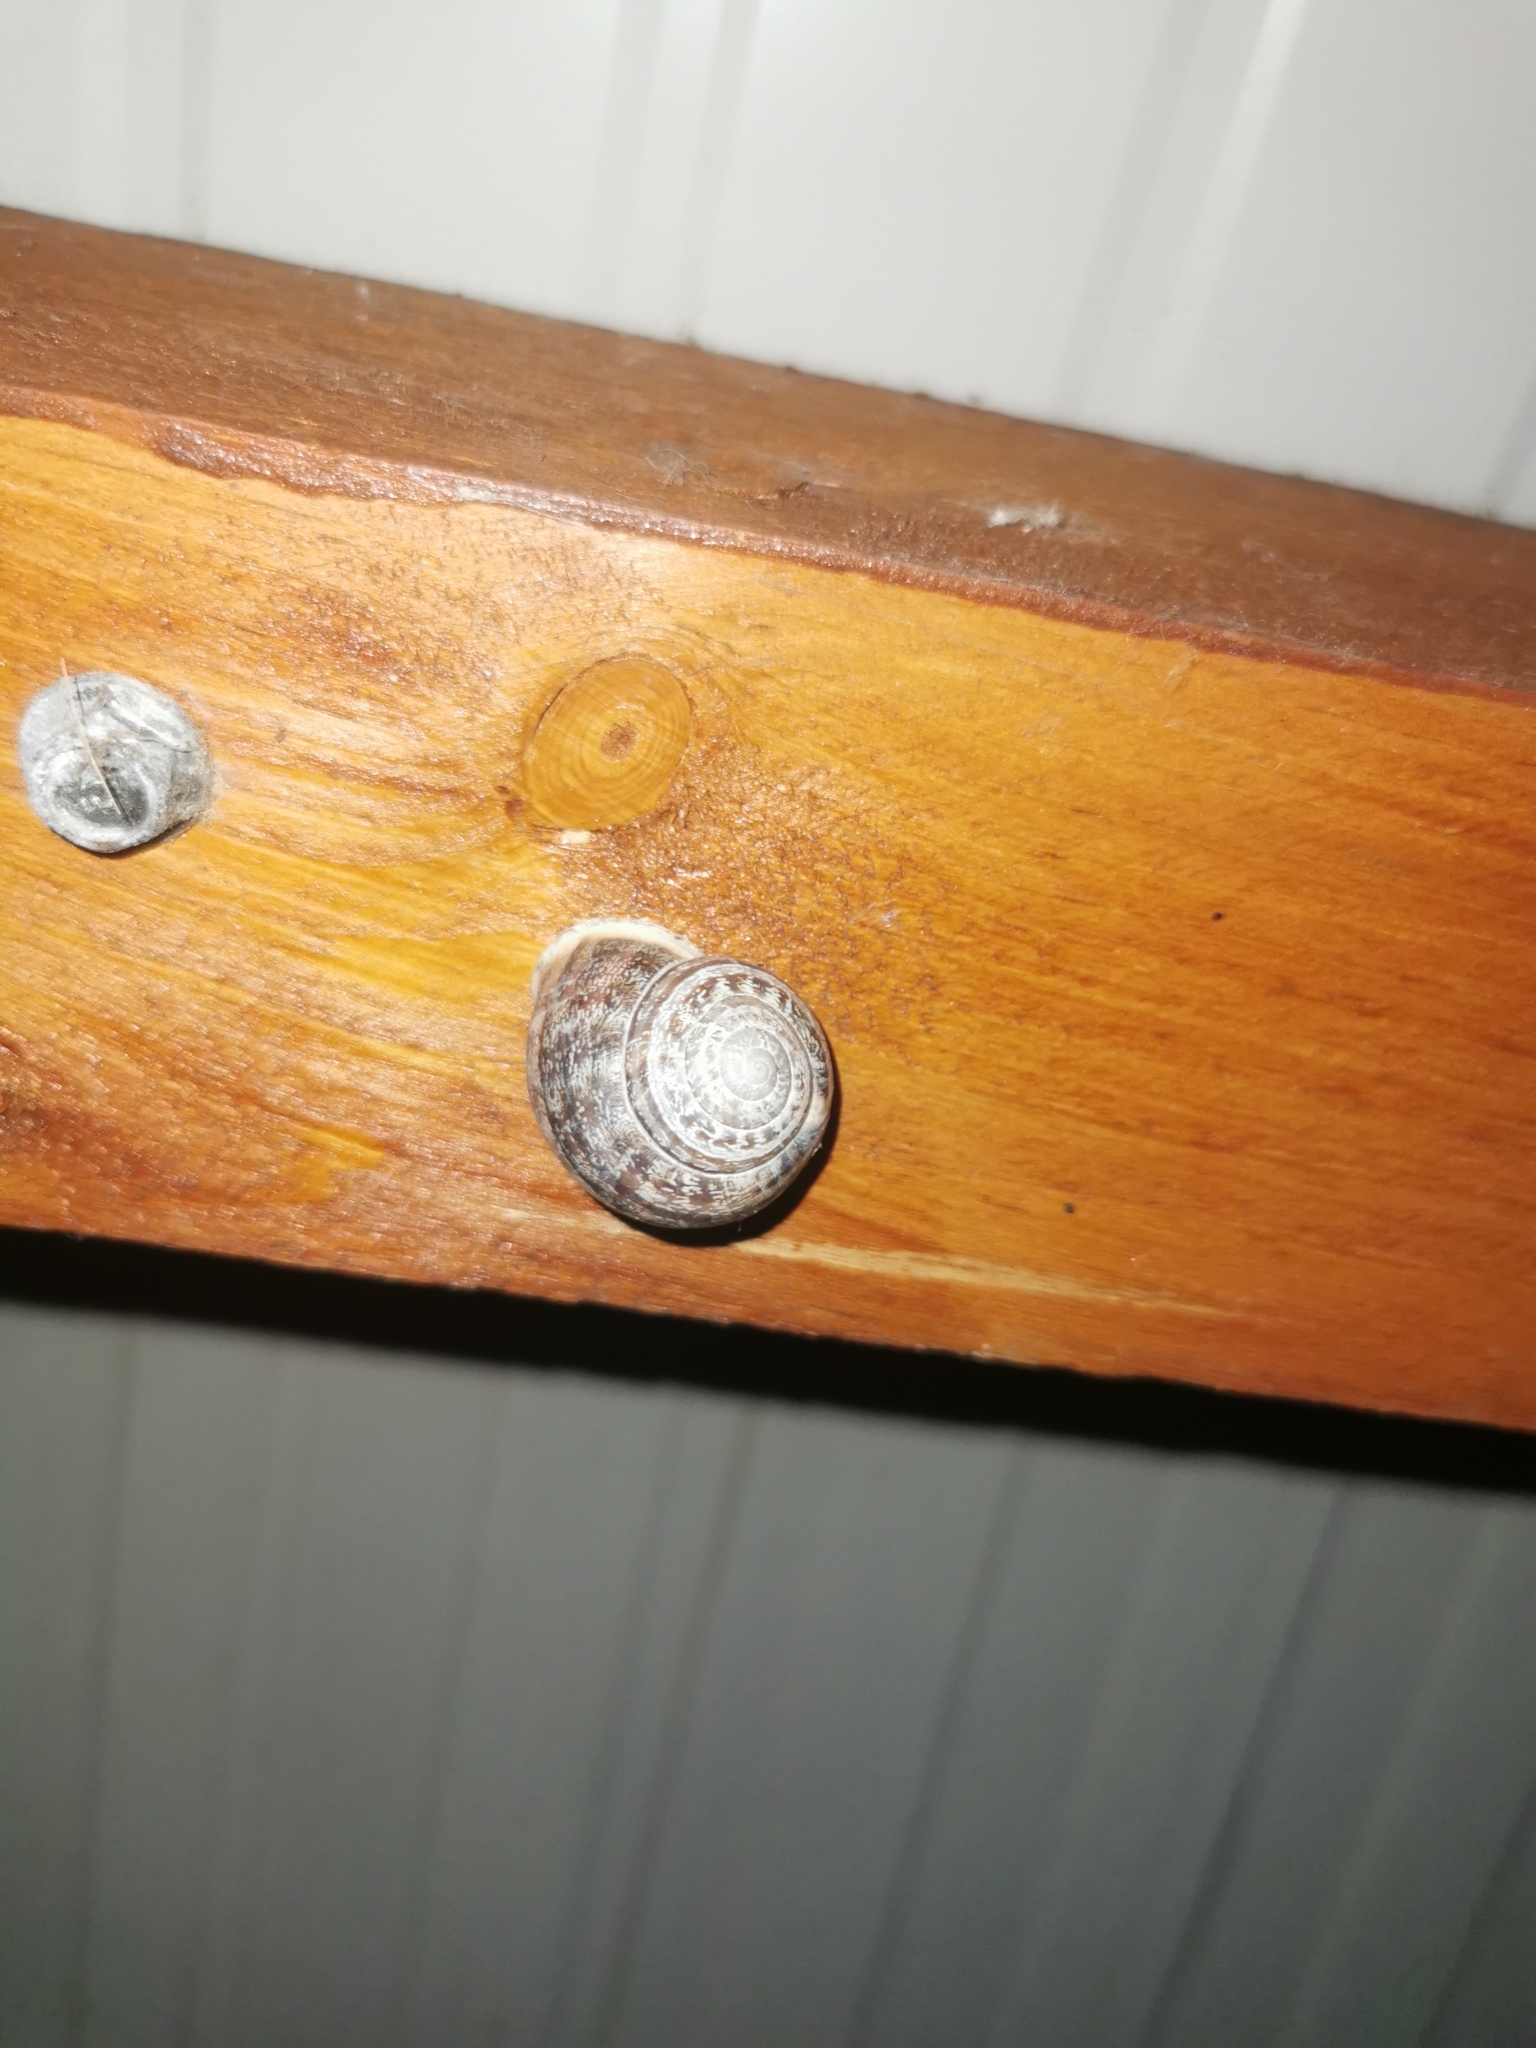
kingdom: Animalia
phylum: Mollusca
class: Gastropoda
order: Stylommatophora
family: Helicidae
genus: Eobania
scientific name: Eobania vermiculata
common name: Chocolateband snail
